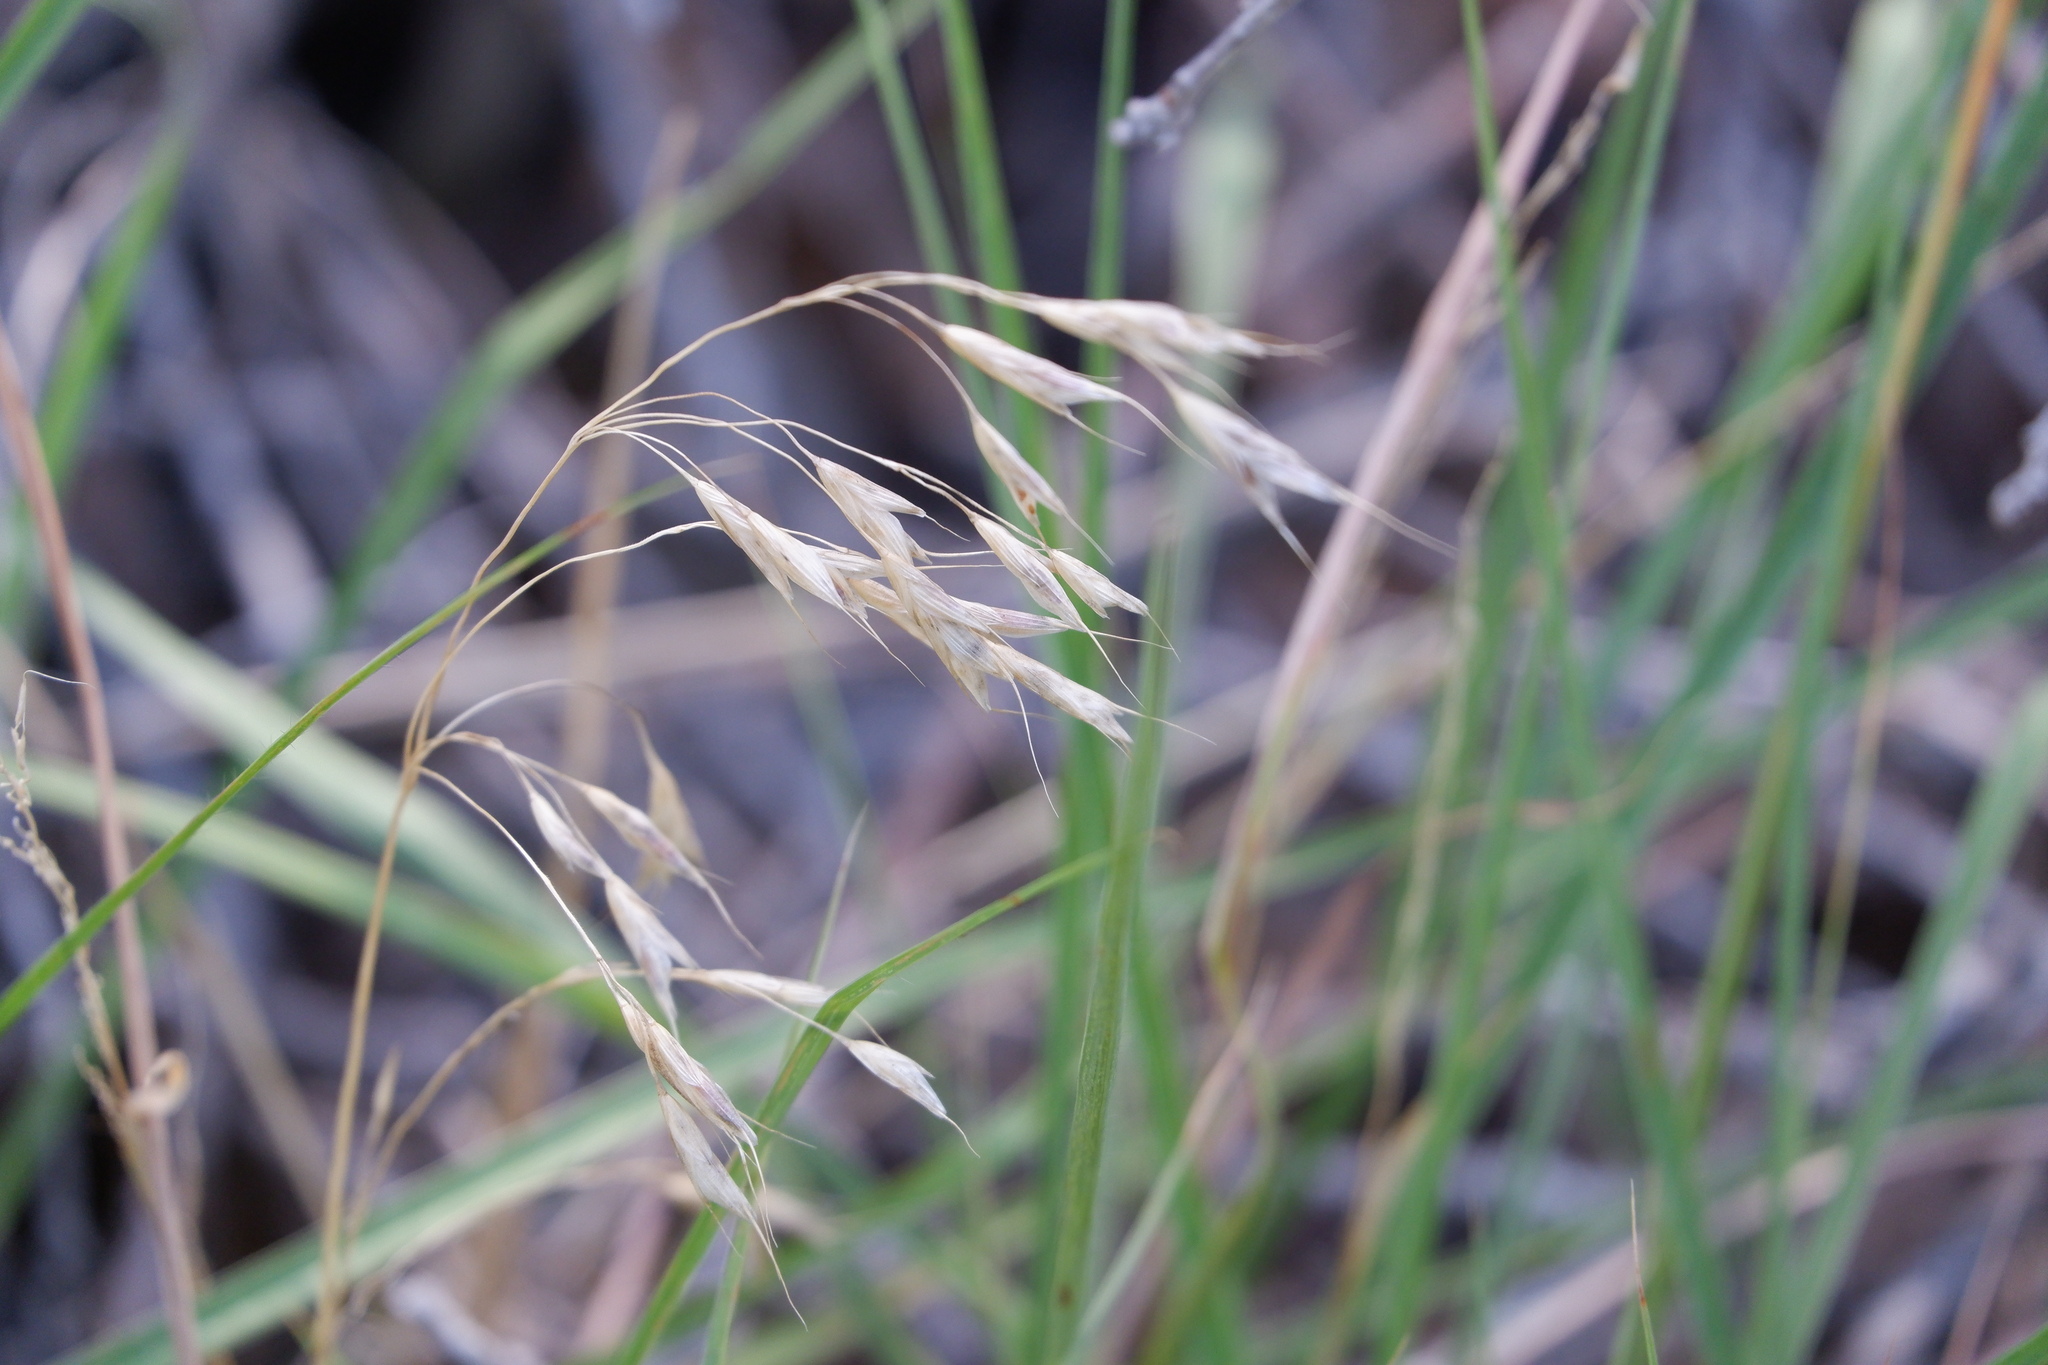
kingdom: Plantae
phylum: Tracheophyta
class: Liliopsida
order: Poales
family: Poaceae
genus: Bromus
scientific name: Bromus japonicus
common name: Japanese brome
